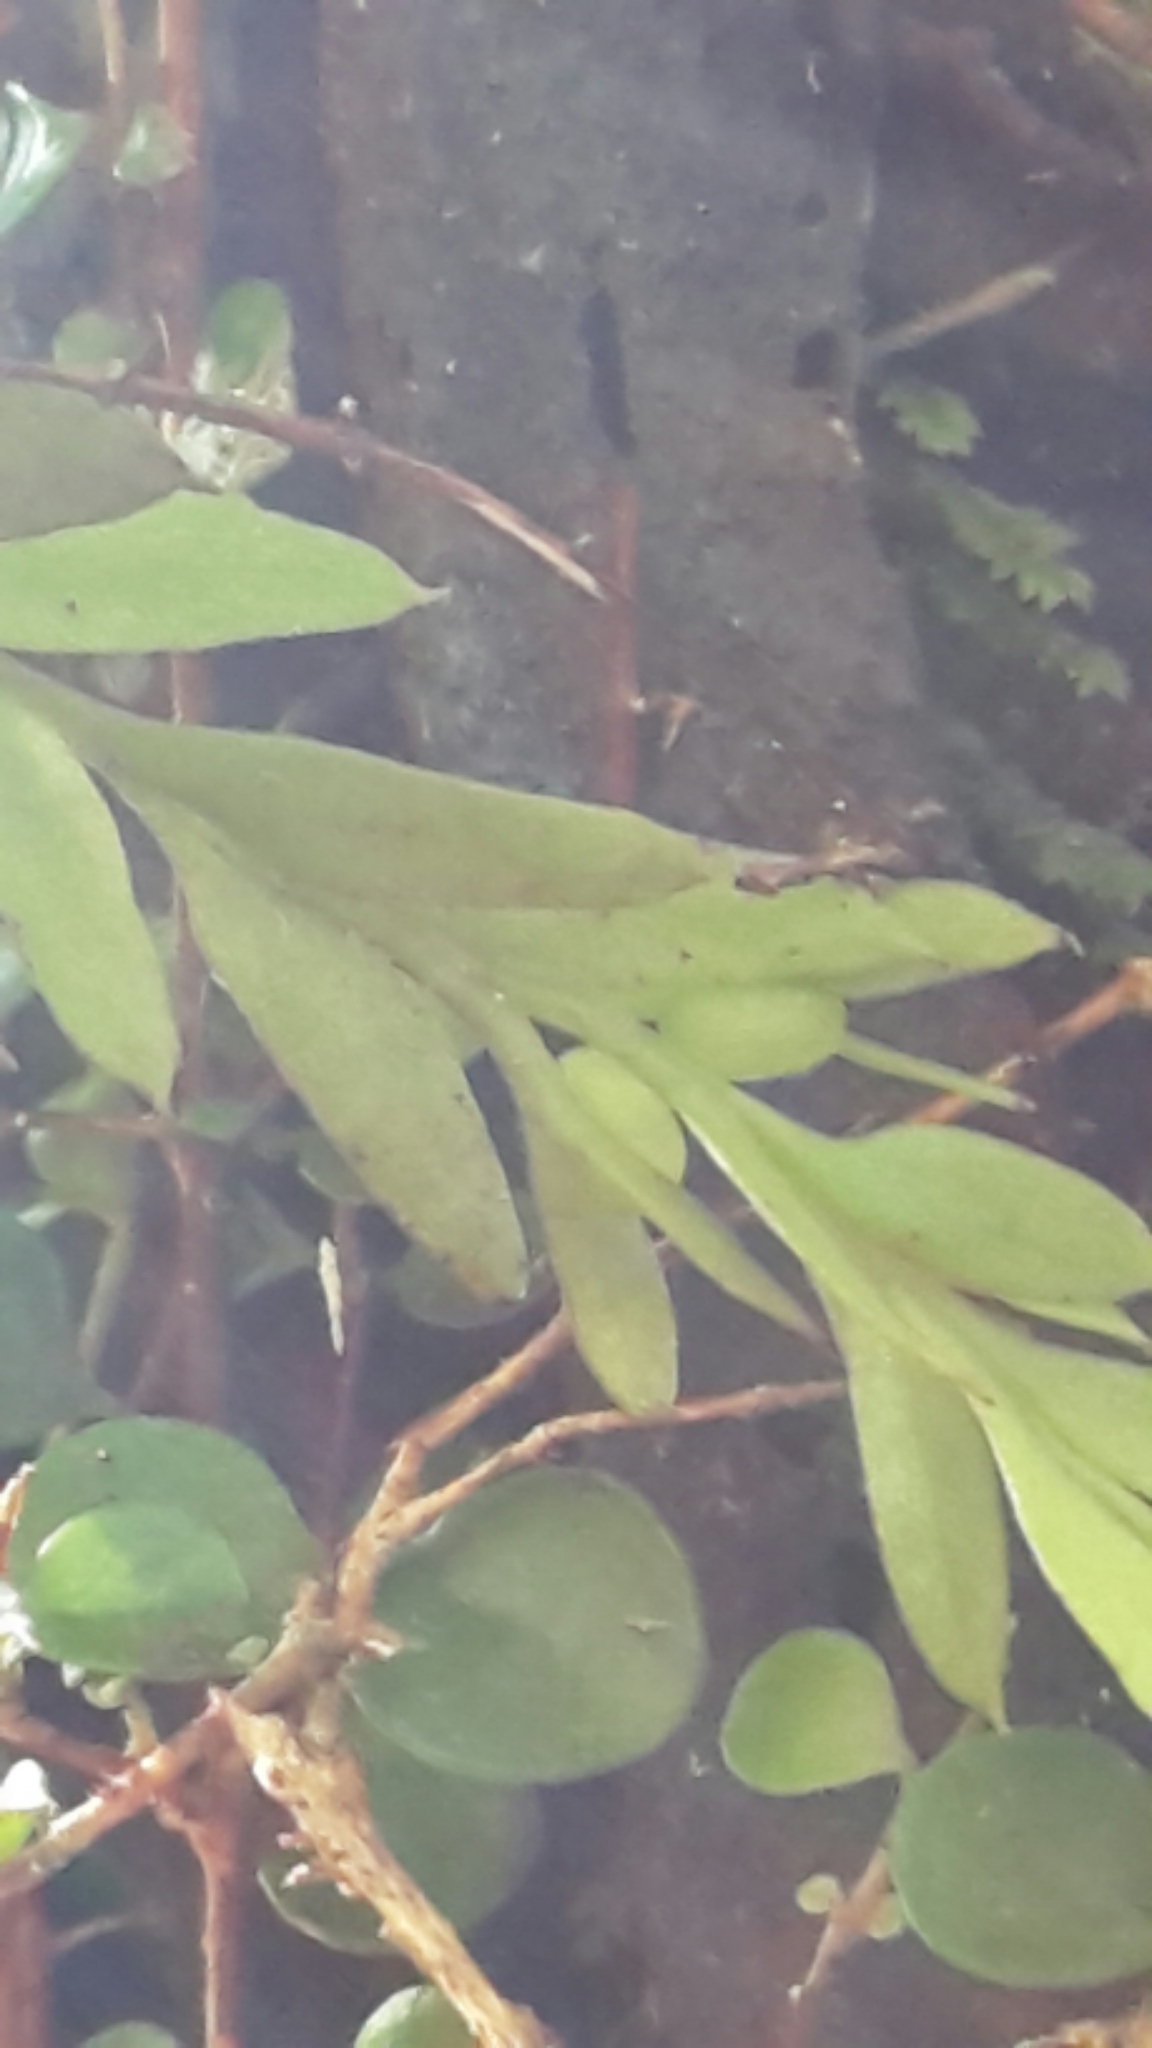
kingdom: Plantae
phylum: Tracheophyta
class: Polypodiopsida
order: Psilotales
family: Psilotaceae
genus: Tmesipteris
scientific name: Tmesipteris elongata
